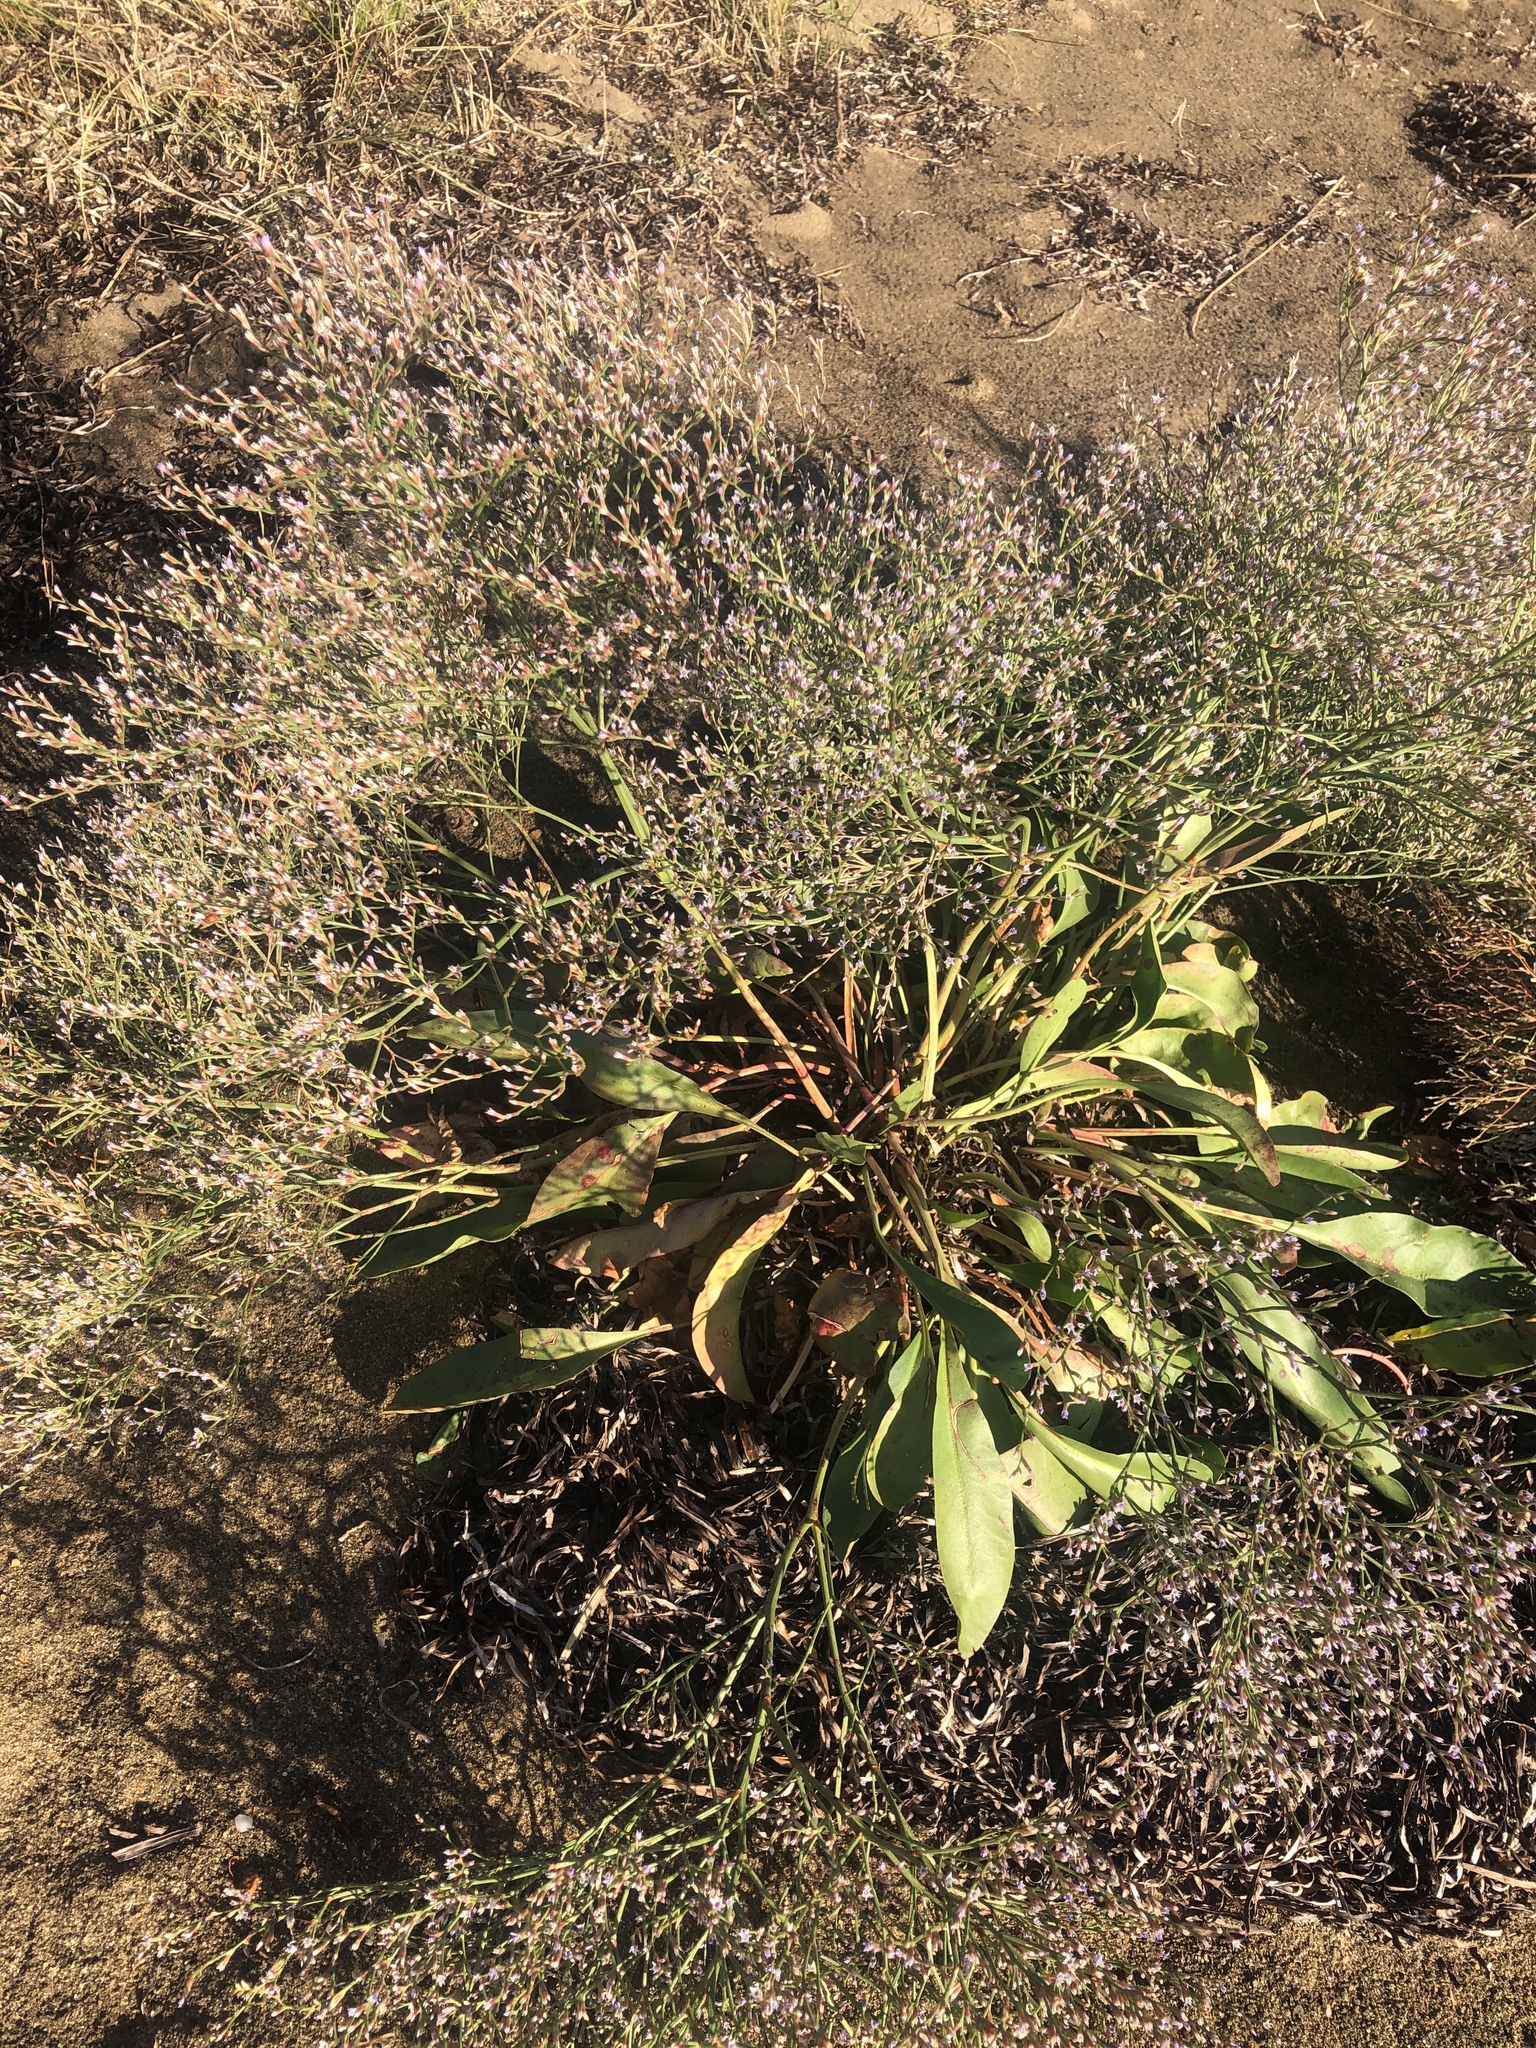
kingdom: Plantae
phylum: Tracheophyta
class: Magnoliopsida
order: Caryophyllales
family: Plumbaginaceae
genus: Limonium
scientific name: Limonium carolinianum
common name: Carolina sea lavender
